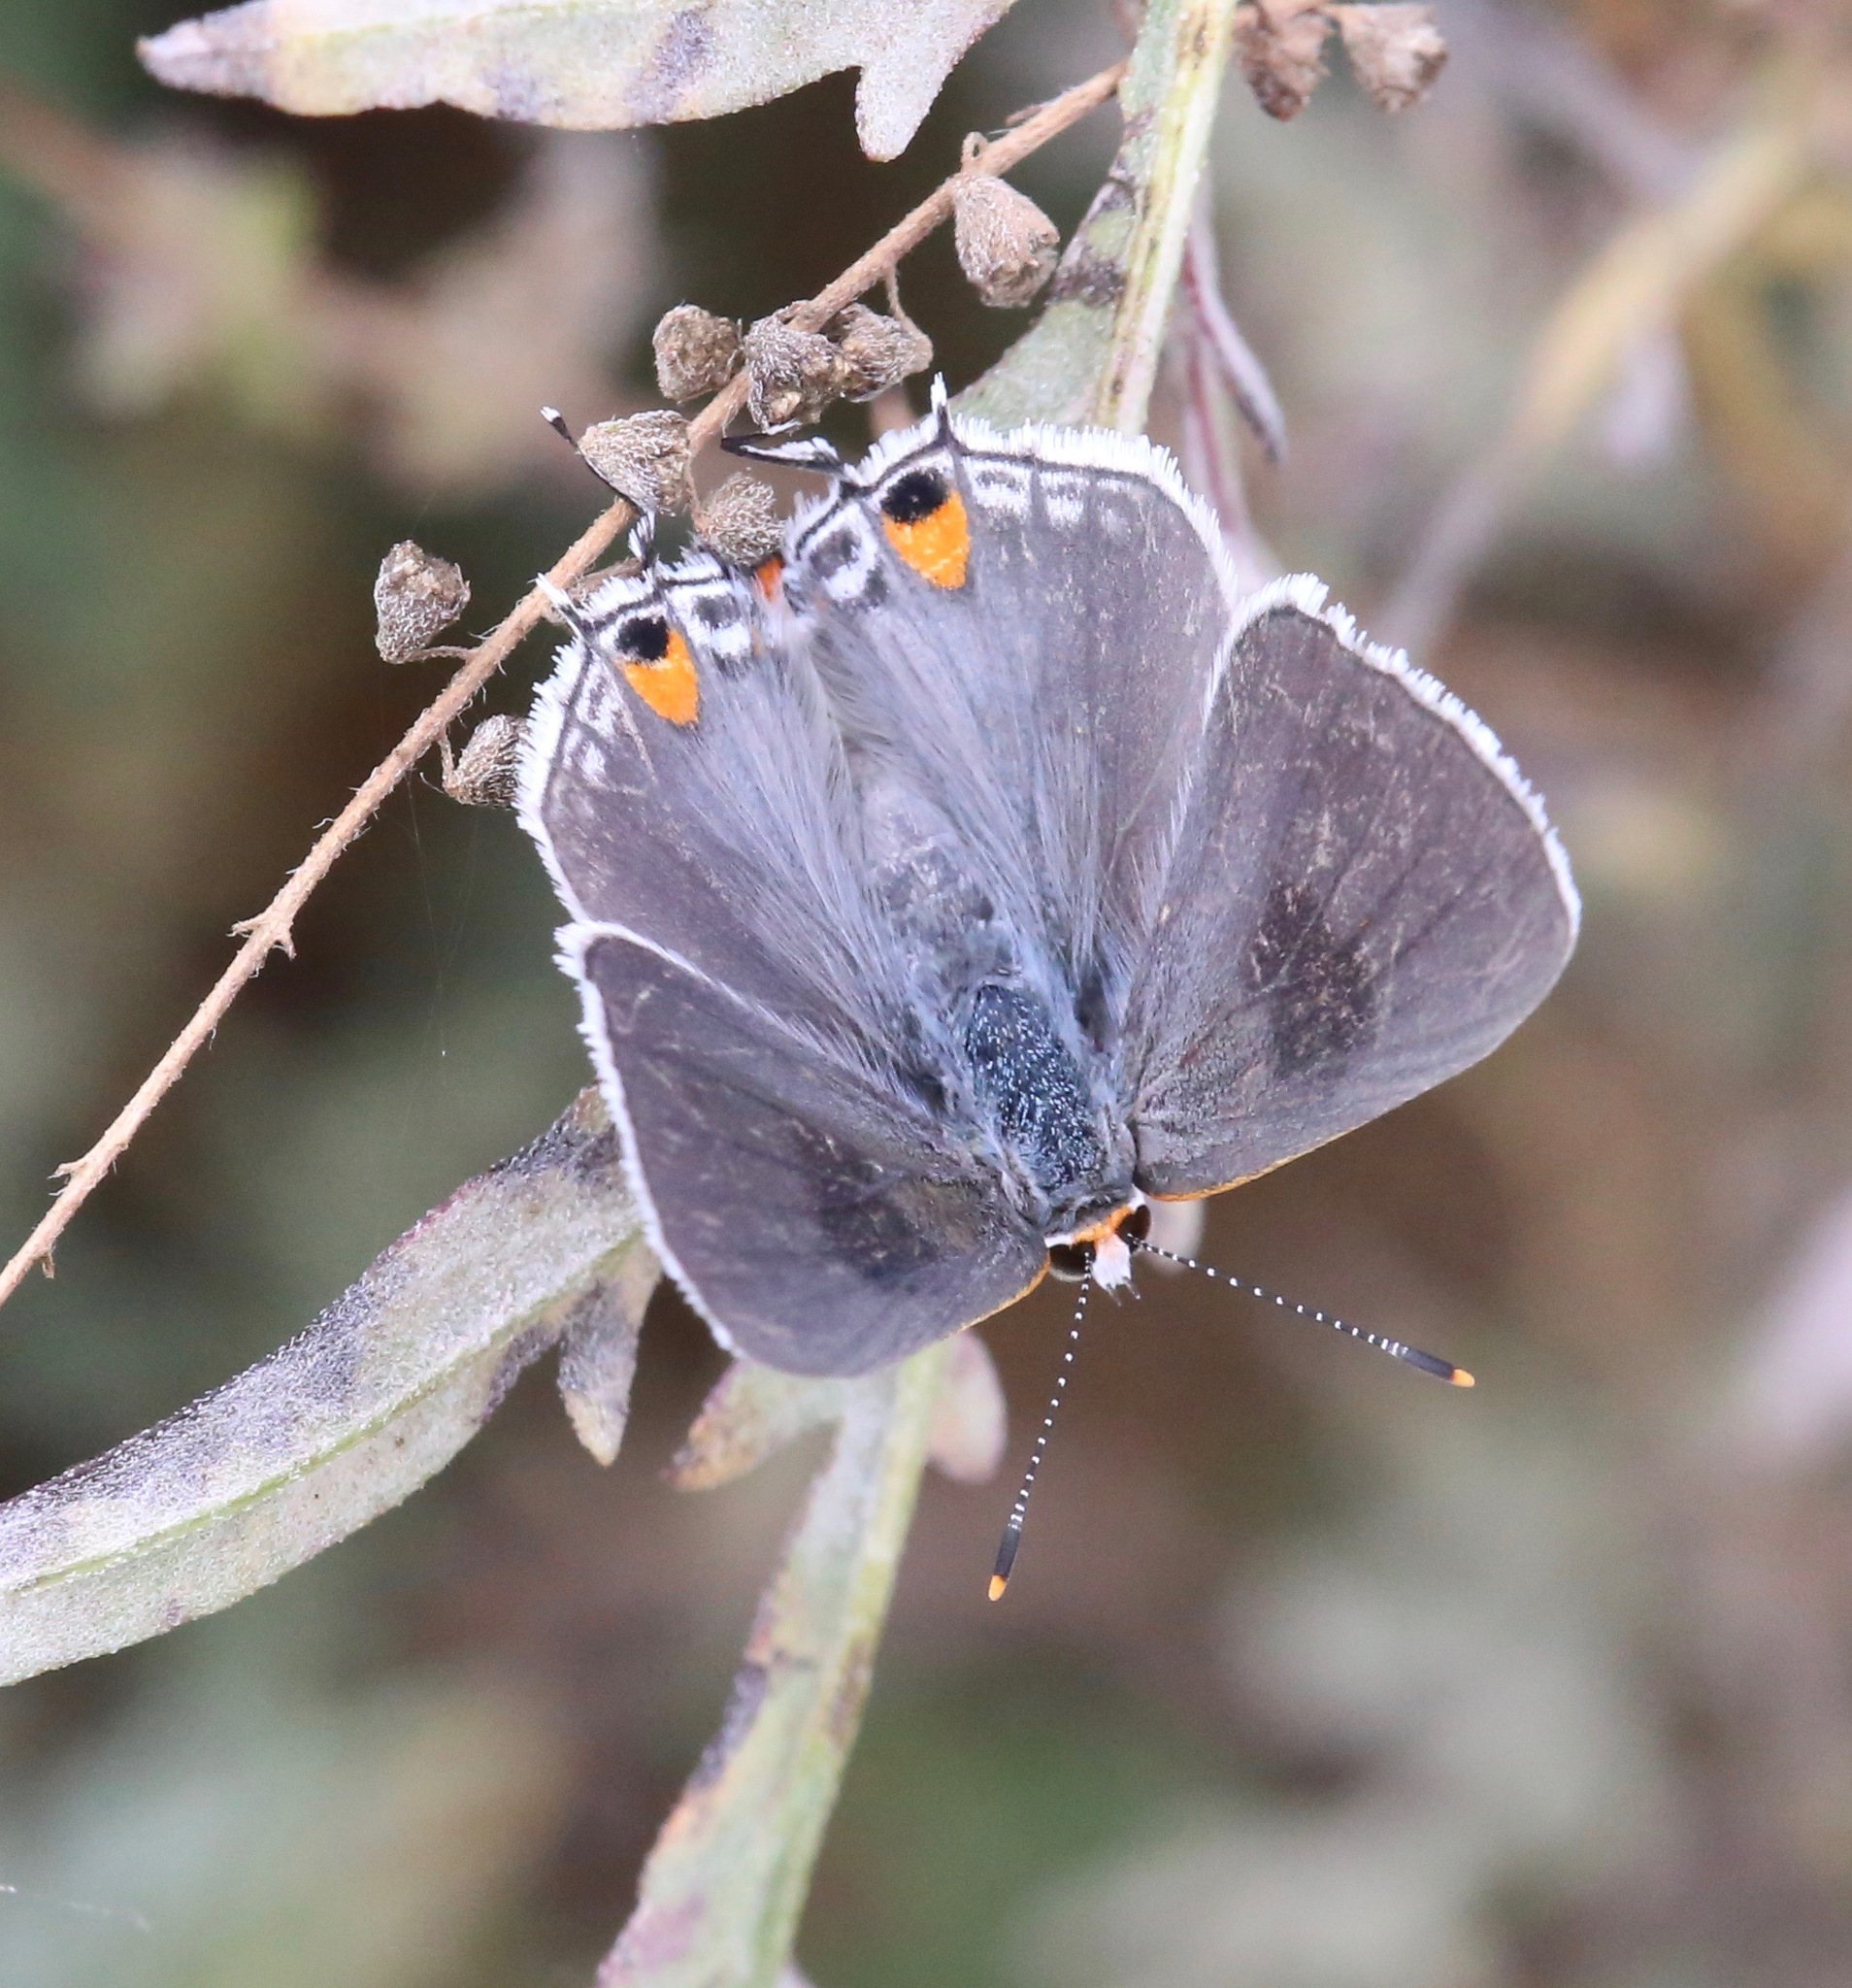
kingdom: Animalia
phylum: Arthropoda
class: Insecta
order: Lepidoptera
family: Lycaenidae
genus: Strymon
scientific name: Strymon melinus
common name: Gray hairstreak
